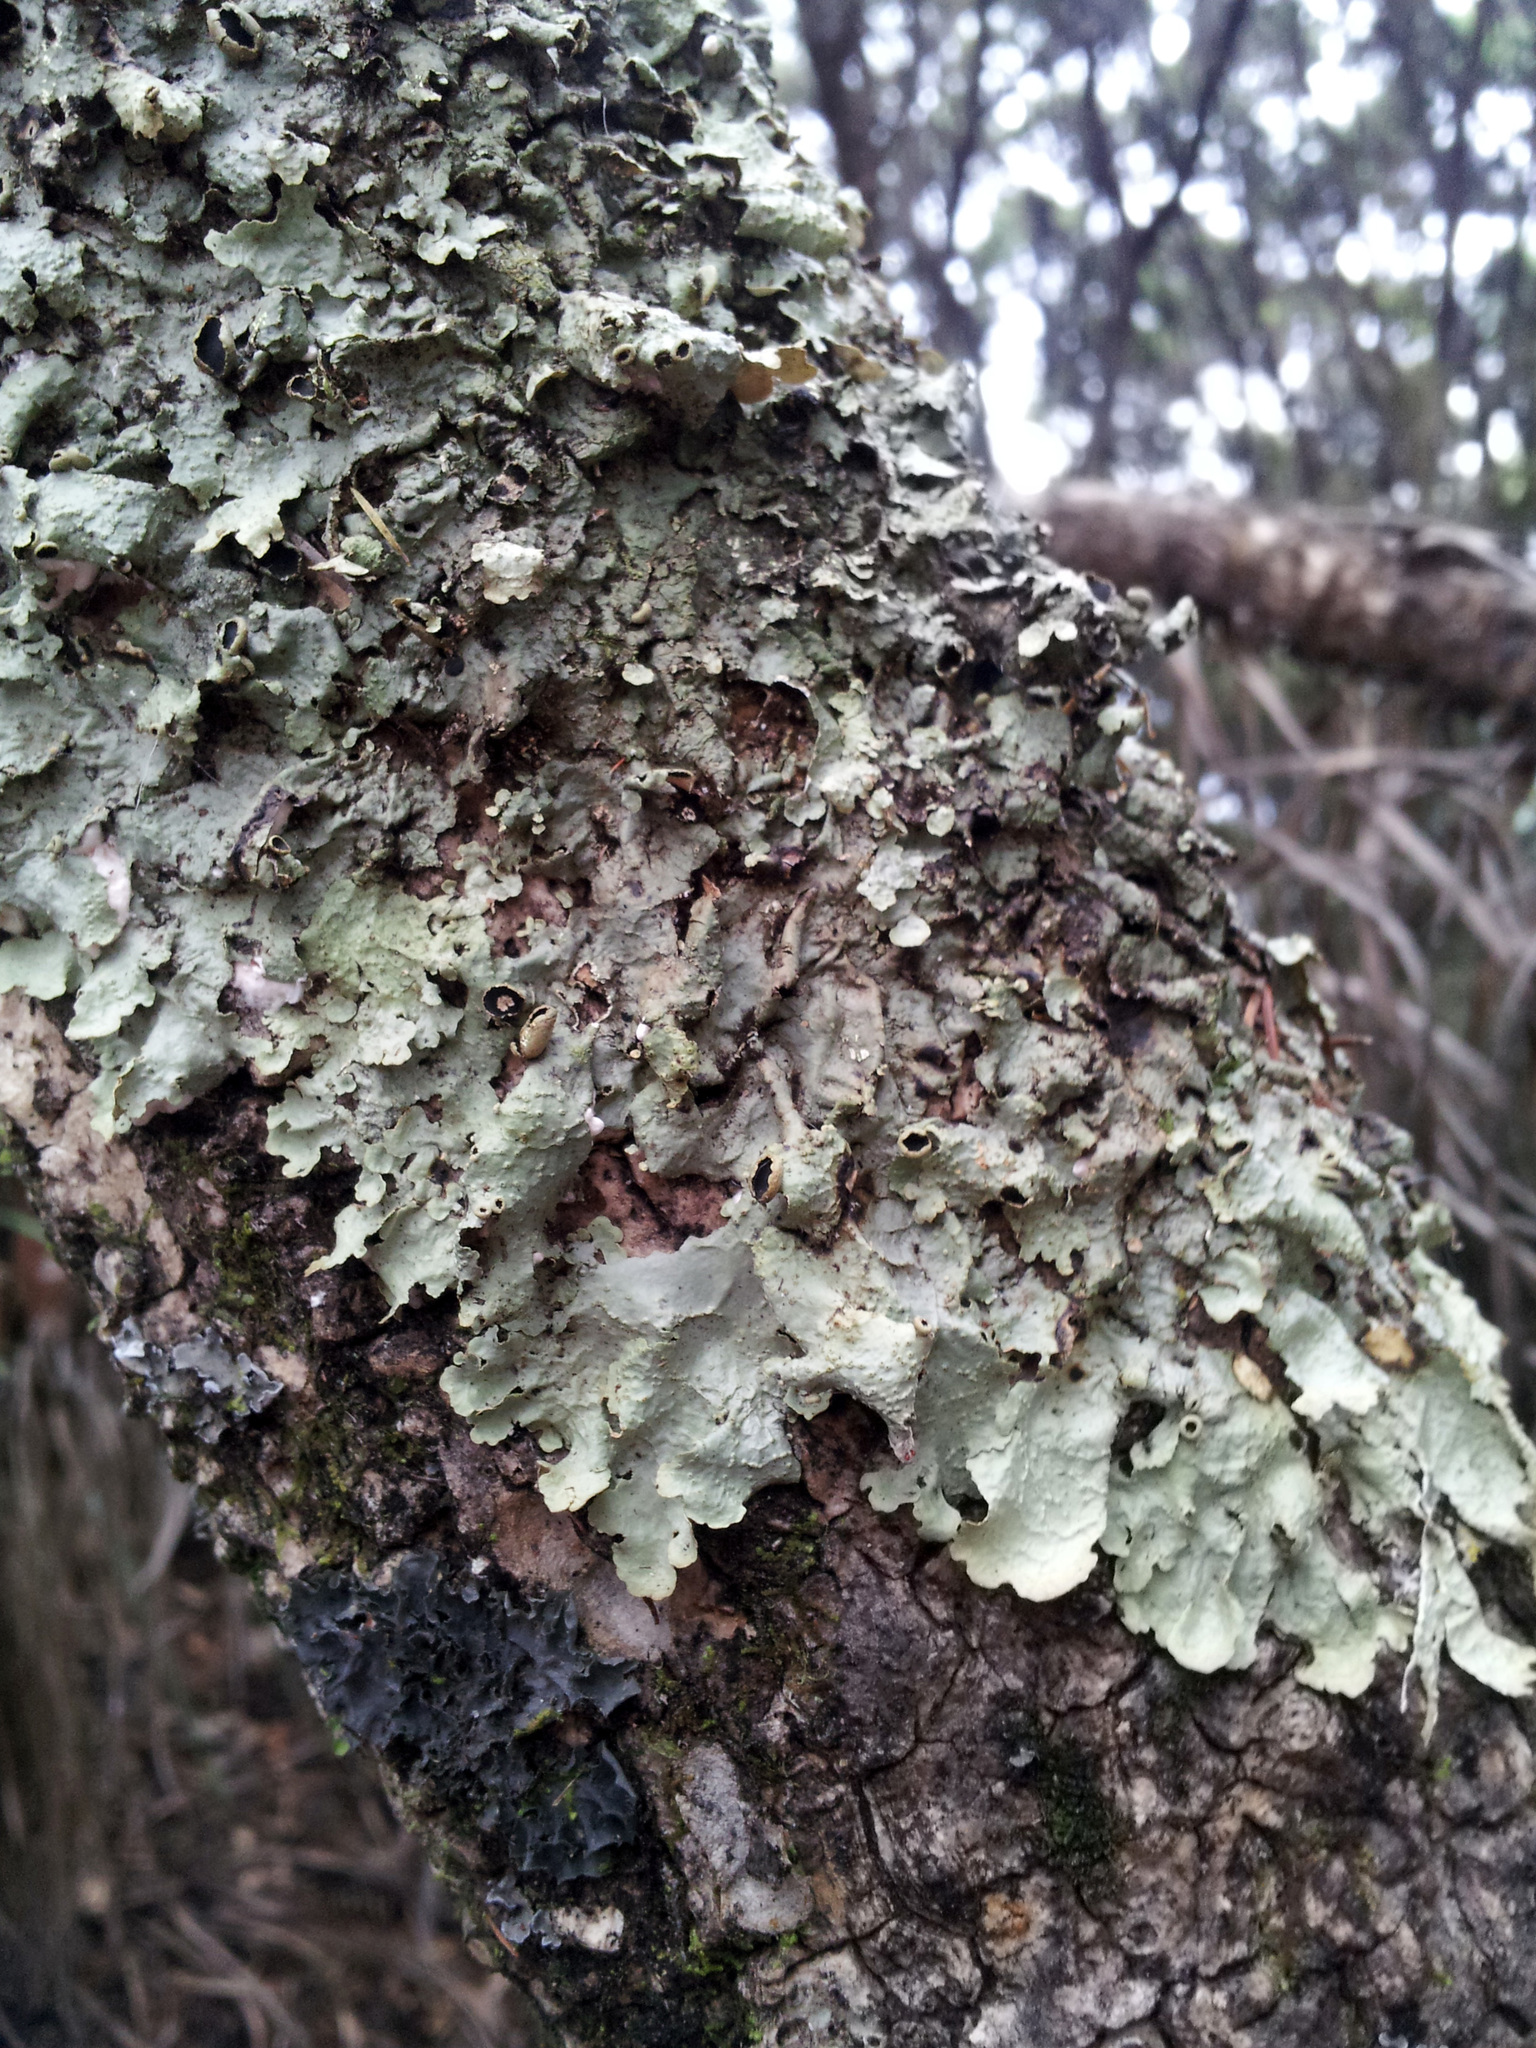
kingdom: Fungi
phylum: Ascomycota
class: Lecanoromycetes
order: Peltigerales
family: Lobariaceae
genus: Pseudocyphellaria
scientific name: Pseudocyphellaria montagnei
